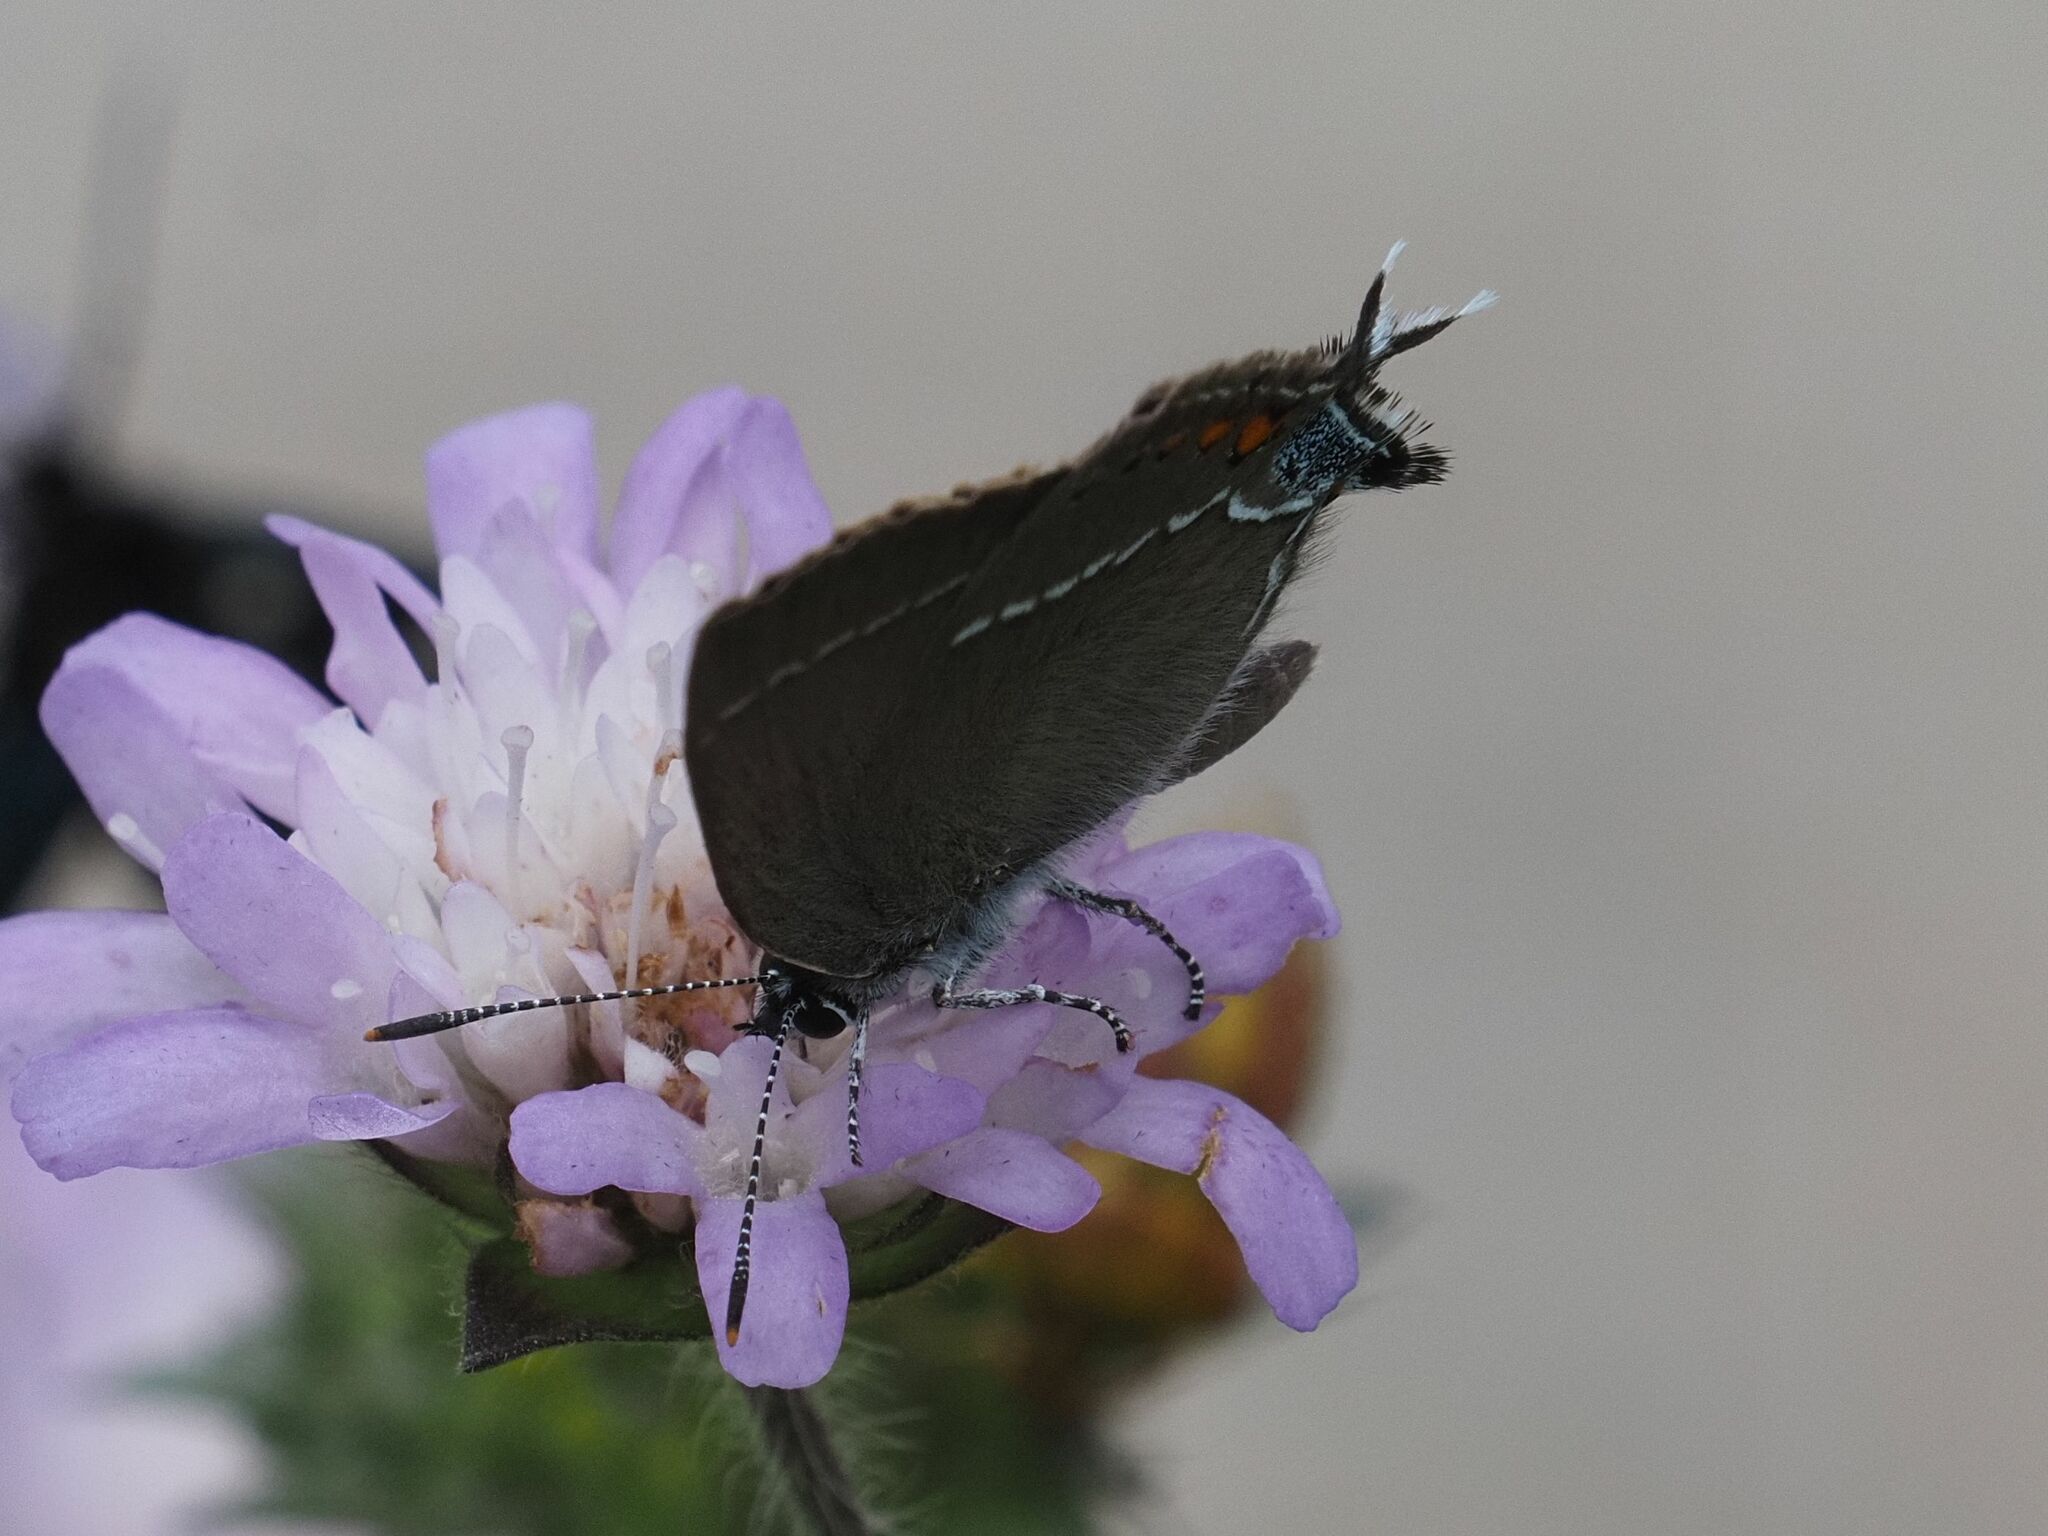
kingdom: Animalia
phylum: Arthropoda
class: Insecta
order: Lepidoptera
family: Lycaenidae
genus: Tuttiola
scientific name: Tuttiola spini
